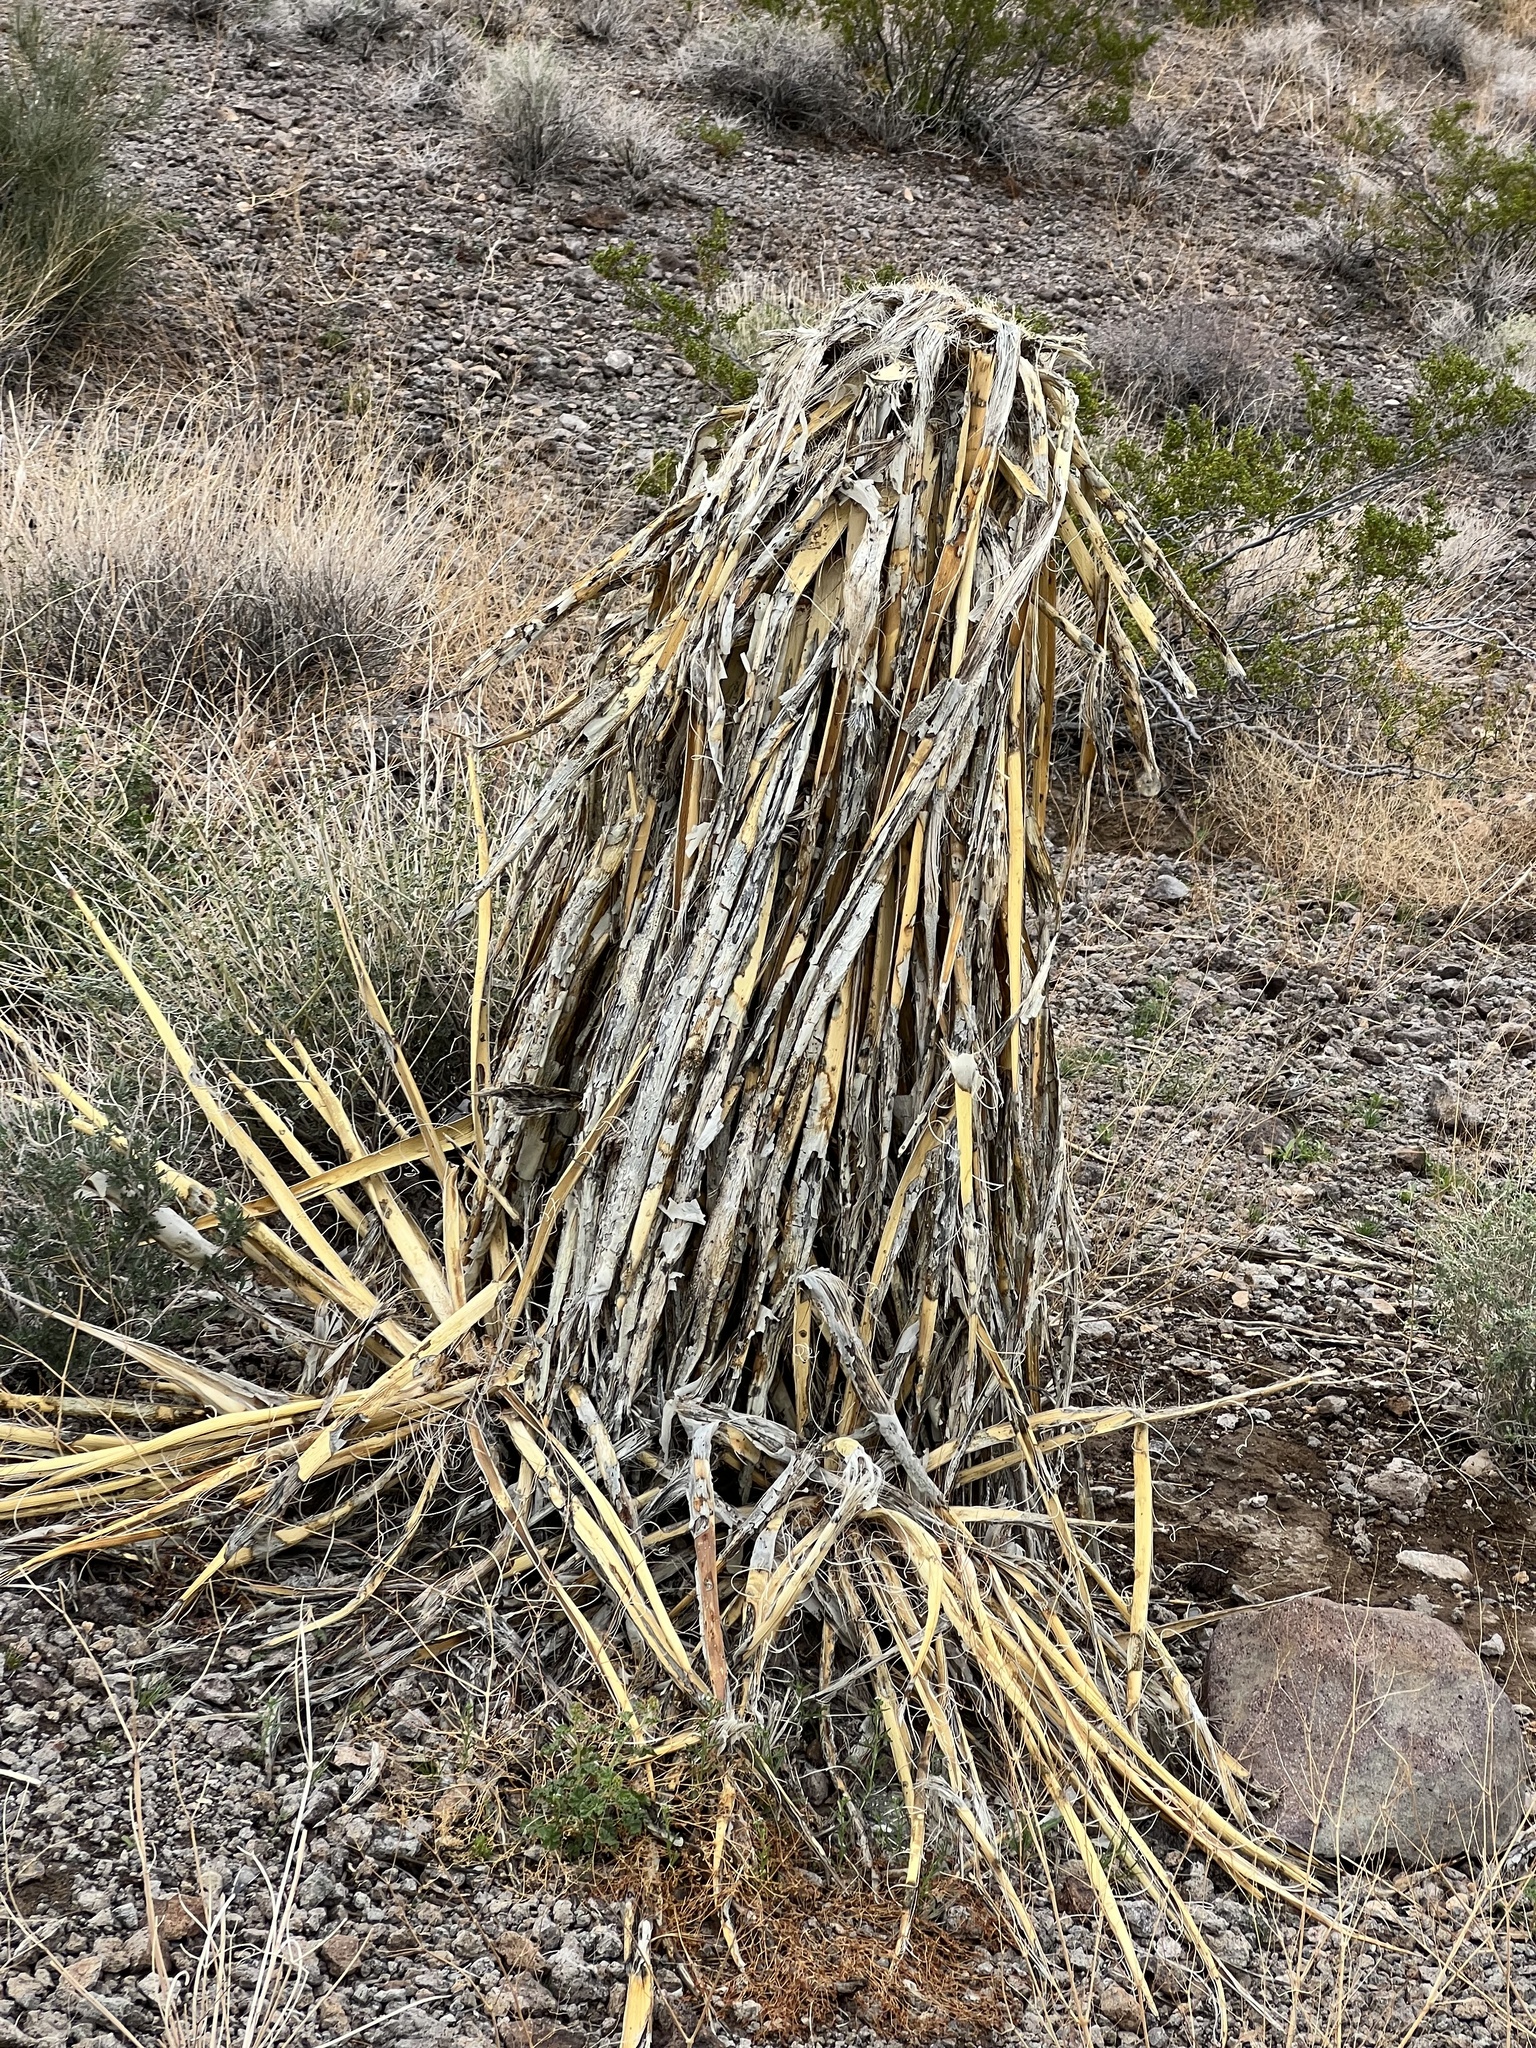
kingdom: Plantae
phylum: Tracheophyta
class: Liliopsida
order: Asparagales
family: Asparagaceae
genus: Yucca
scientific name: Yucca schidigera
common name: Mojave yucca
